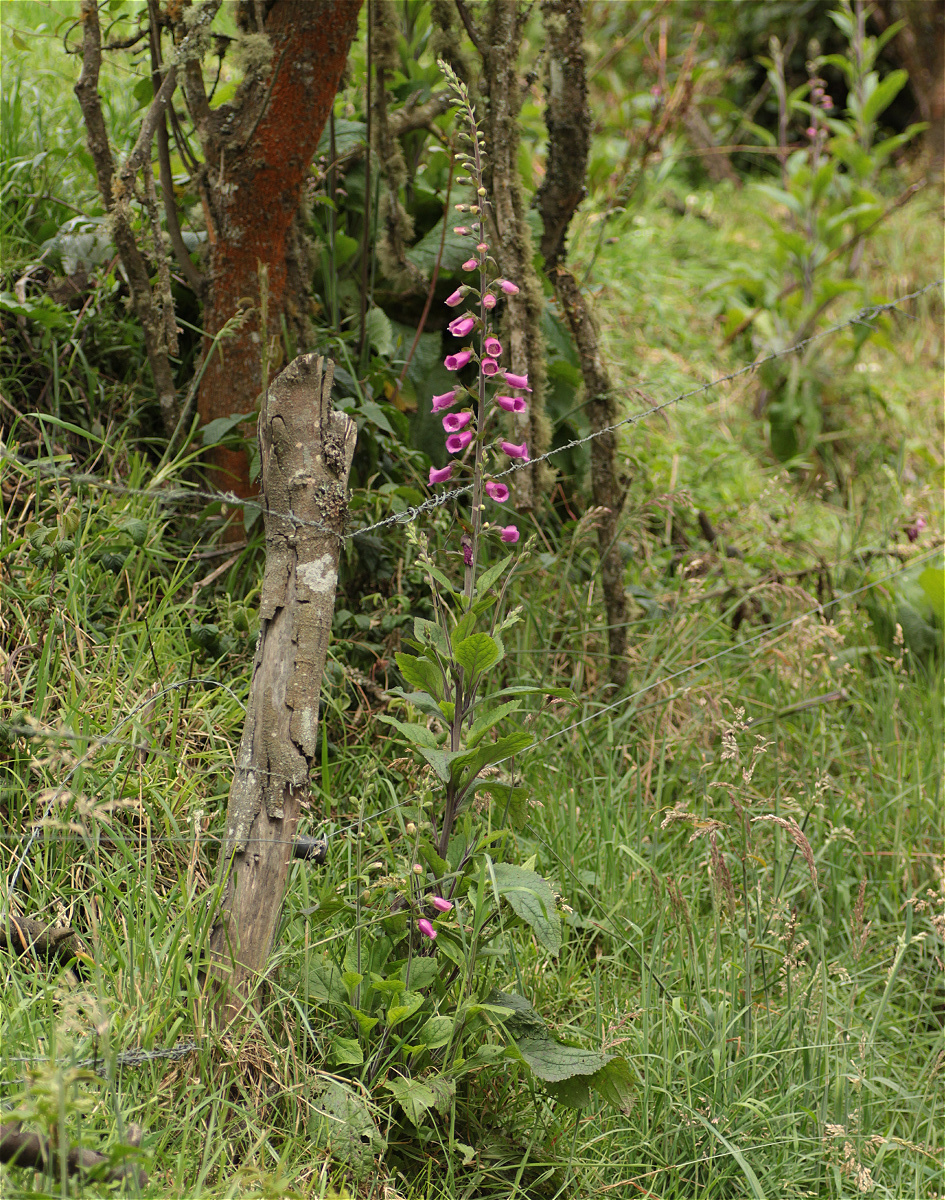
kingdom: Plantae
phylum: Tracheophyta
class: Magnoliopsida
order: Lamiales
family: Plantaginaceae
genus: Digitalis
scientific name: Digitalis purpurea
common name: Foxglove
